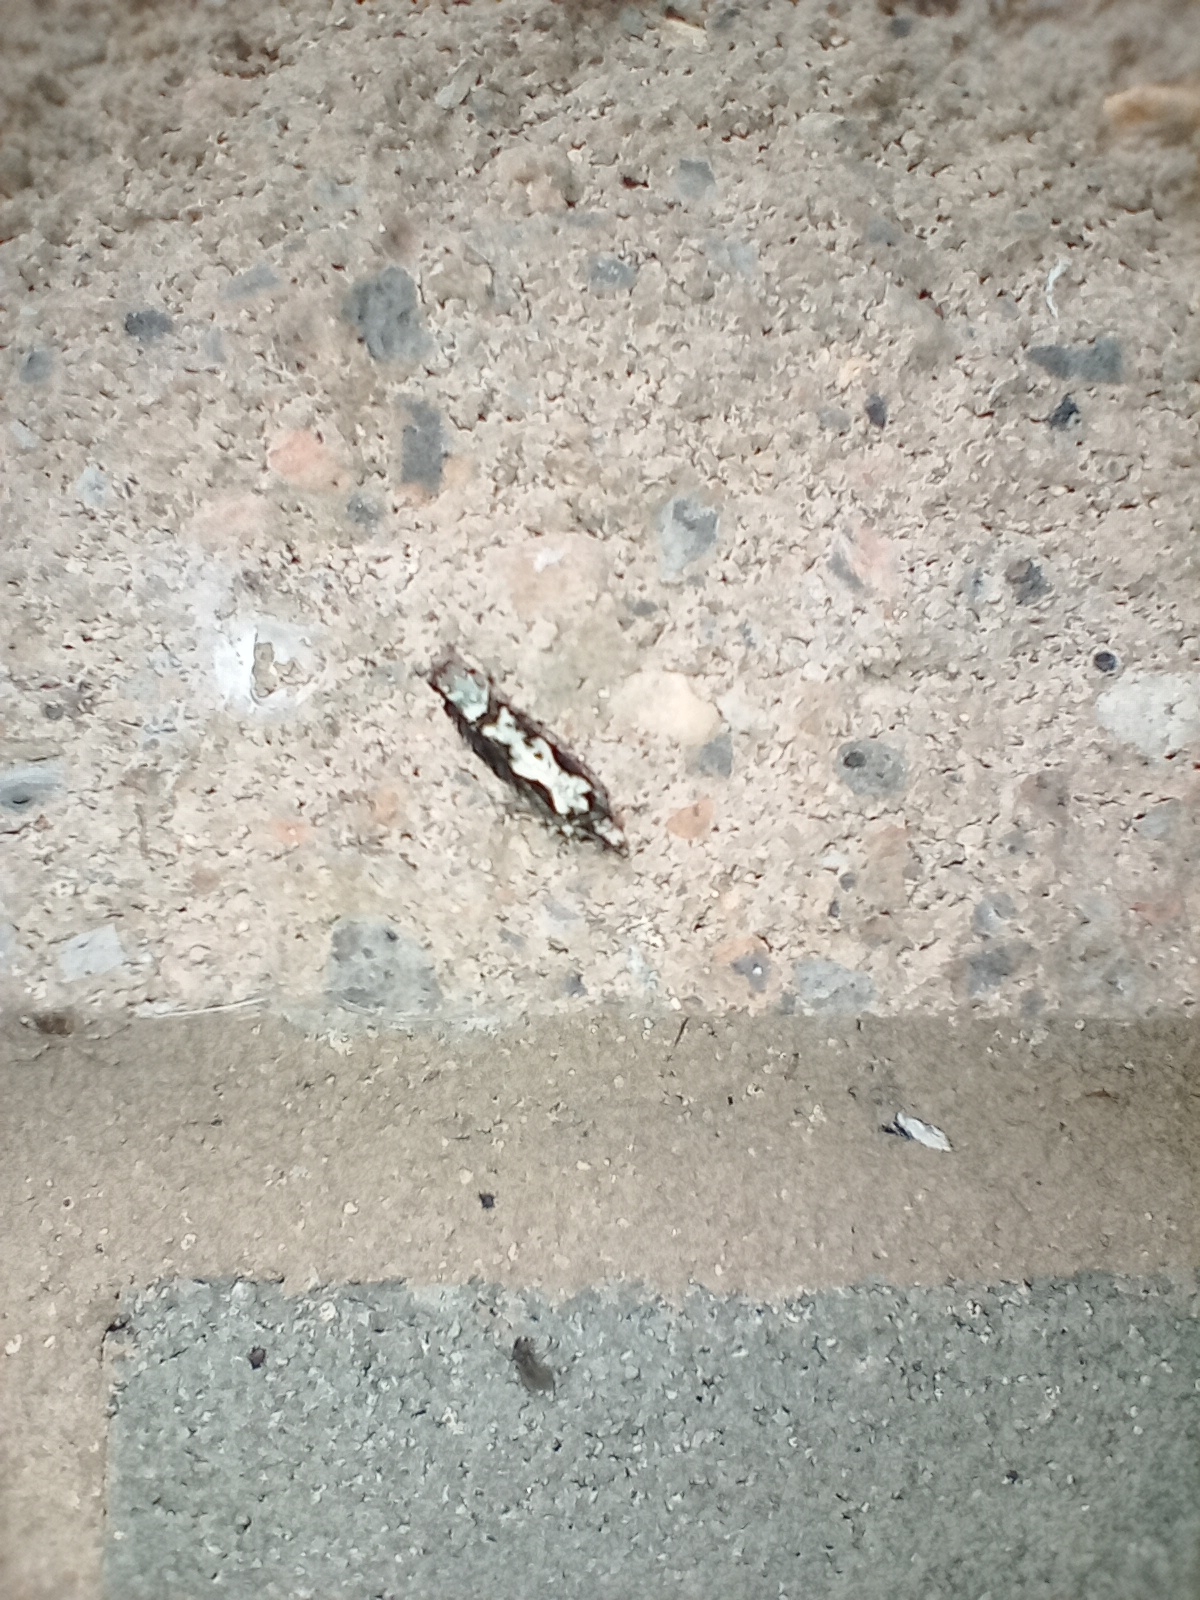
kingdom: Animalia
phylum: Arthropoda
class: Insecta
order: Lepidoptera
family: Tortricidae
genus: Chimoptesis
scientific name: Chimoptesis pennsylvaniana
